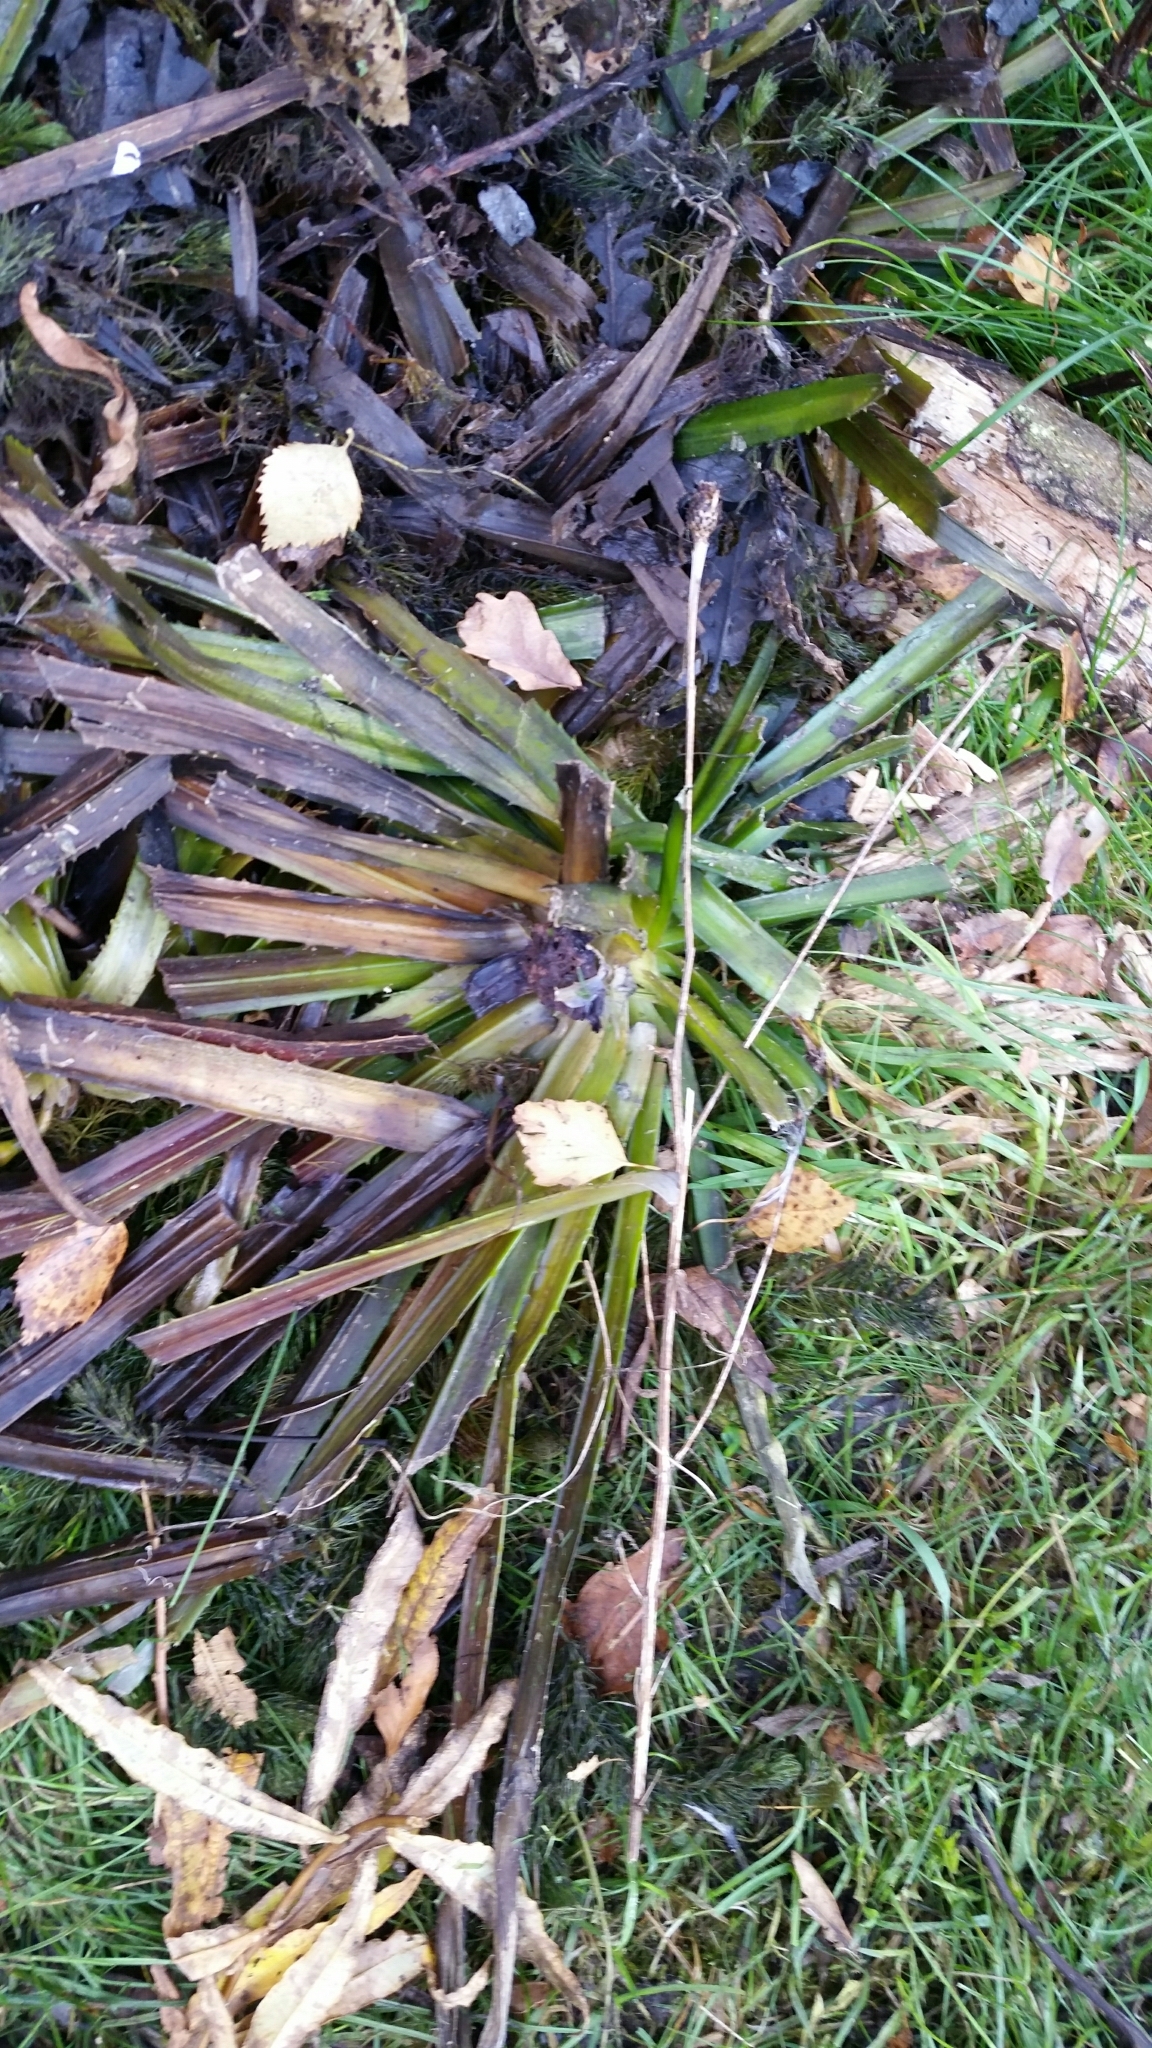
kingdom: Plantae
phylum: Tracheophyta
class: Liliopsida
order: Alismatales
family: Hydrocharitaceae
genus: Stratiotes
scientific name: Stratiotes aloides
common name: Water-soldier
